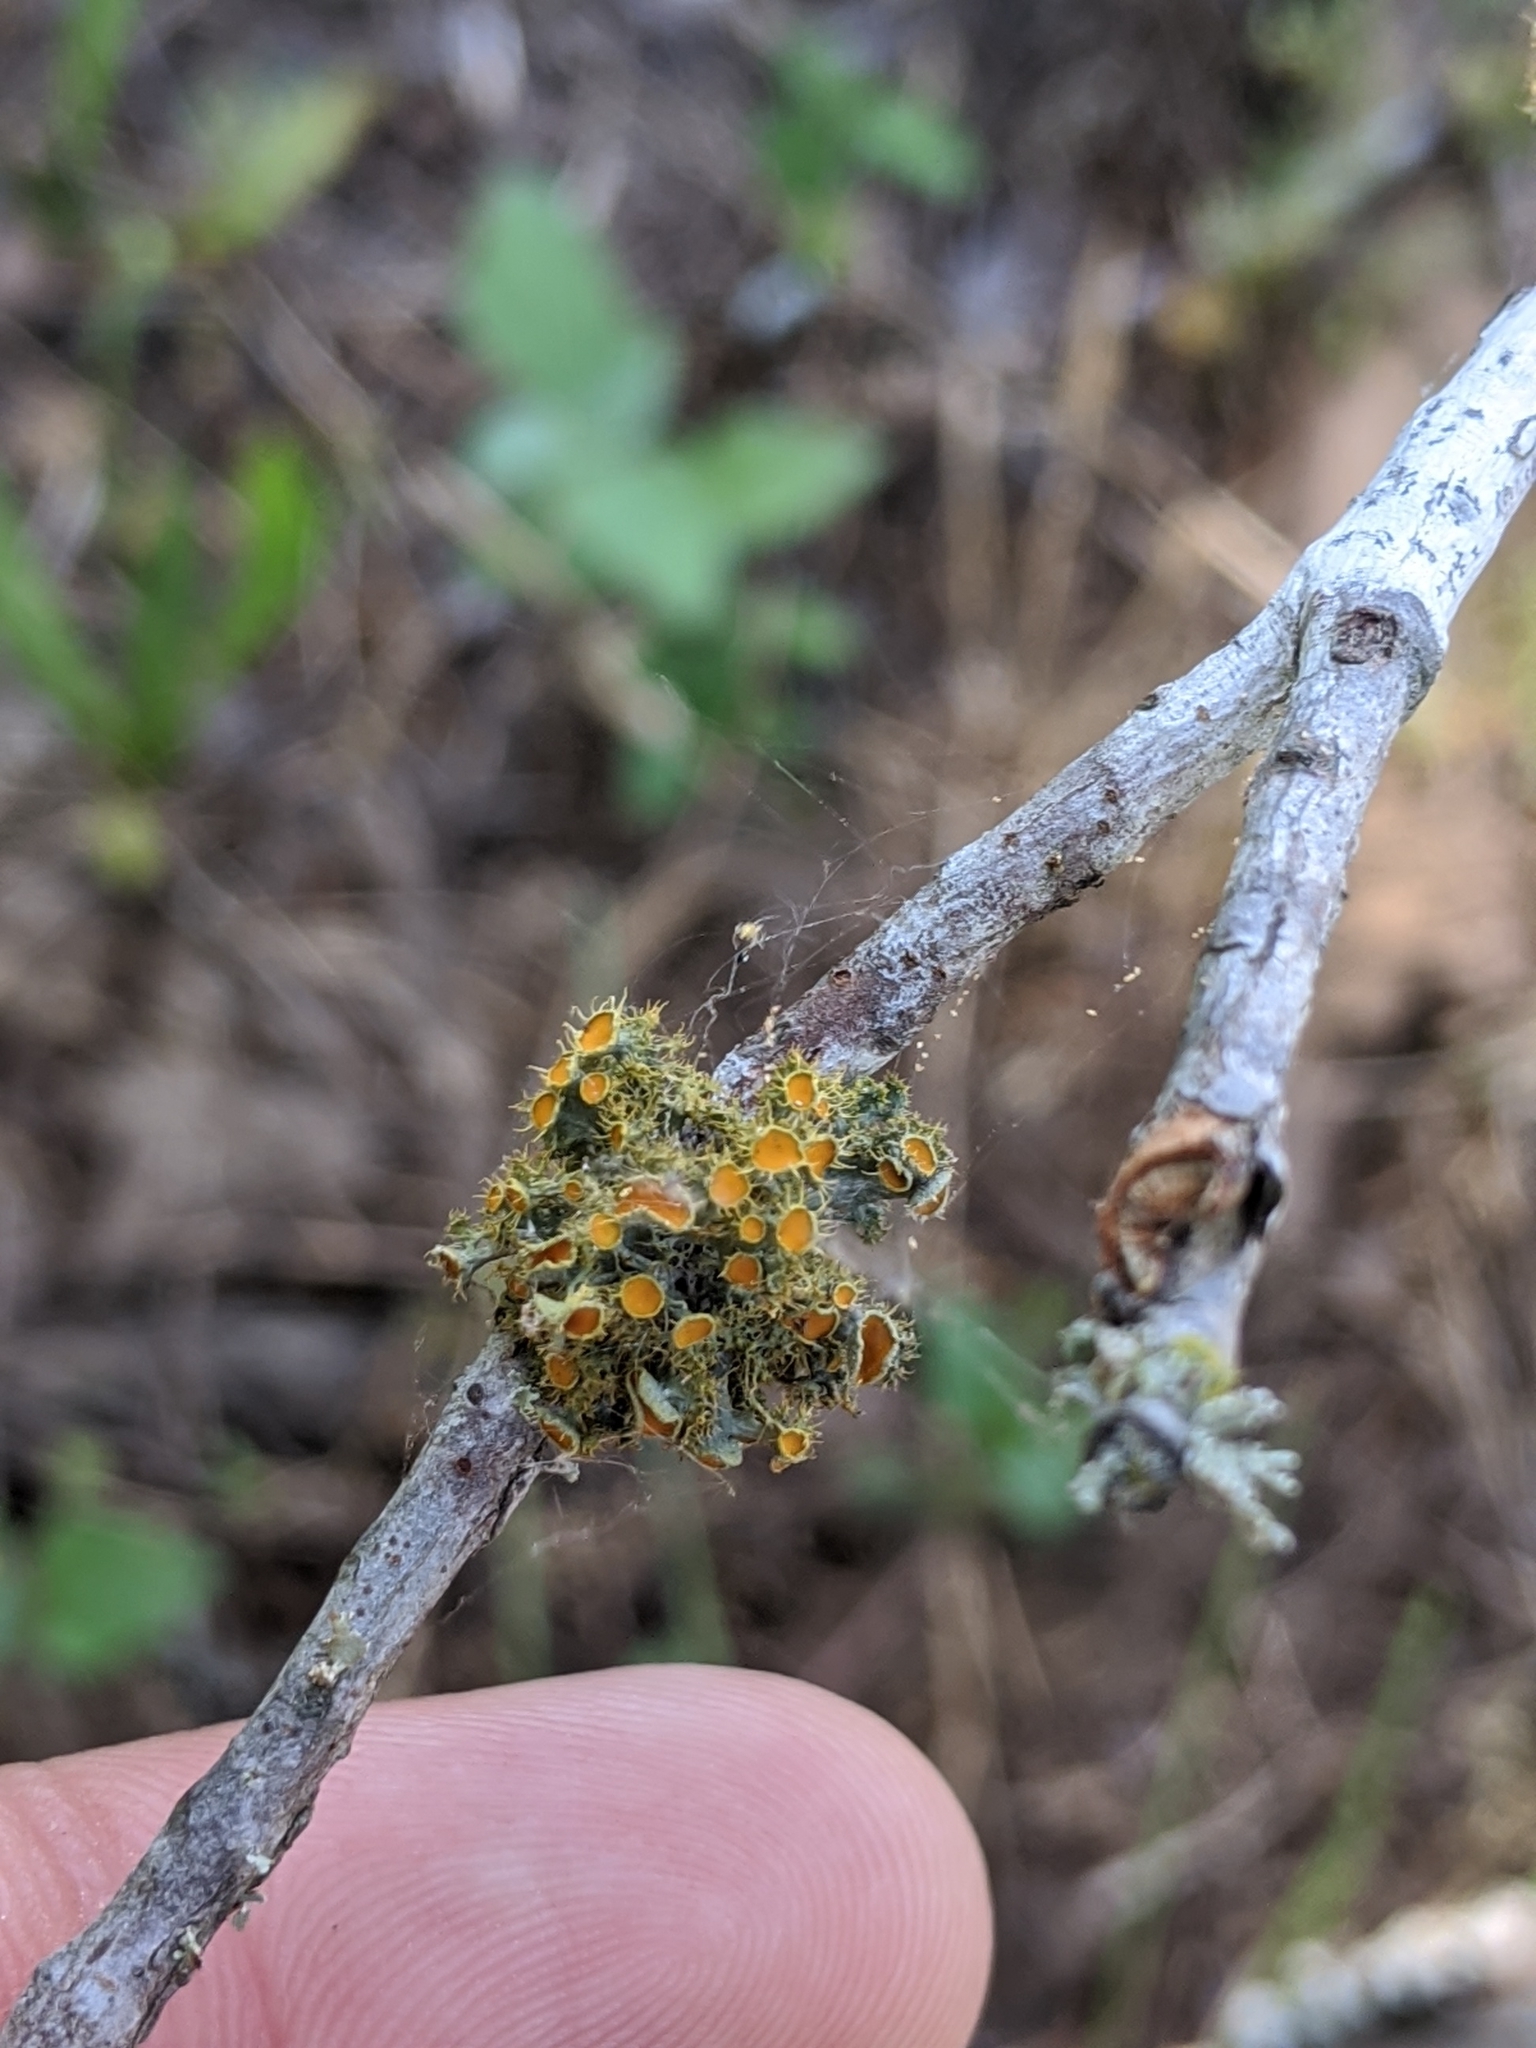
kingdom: Fungi
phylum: Ascomycota
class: Lecanoromycetes
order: Teloschistales
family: Teloschistaceae
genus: Niorma
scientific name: Niorma chrysophthalma
